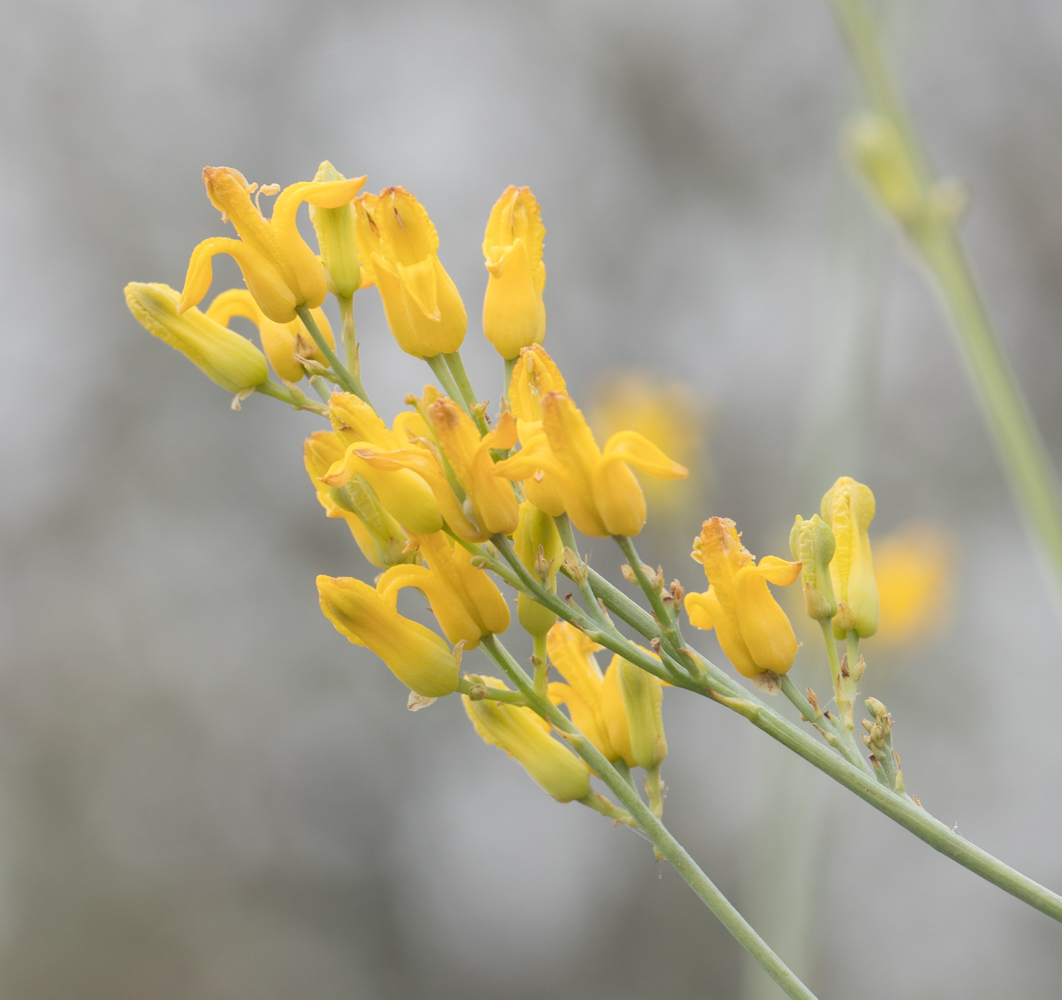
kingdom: Plantae
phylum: Tracheophyta
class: Magnoliopsida
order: Ranunculales
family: Papaveraceae
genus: Ehrendorferia
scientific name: Ehrendorferia chrysantha
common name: Golden eardrops
